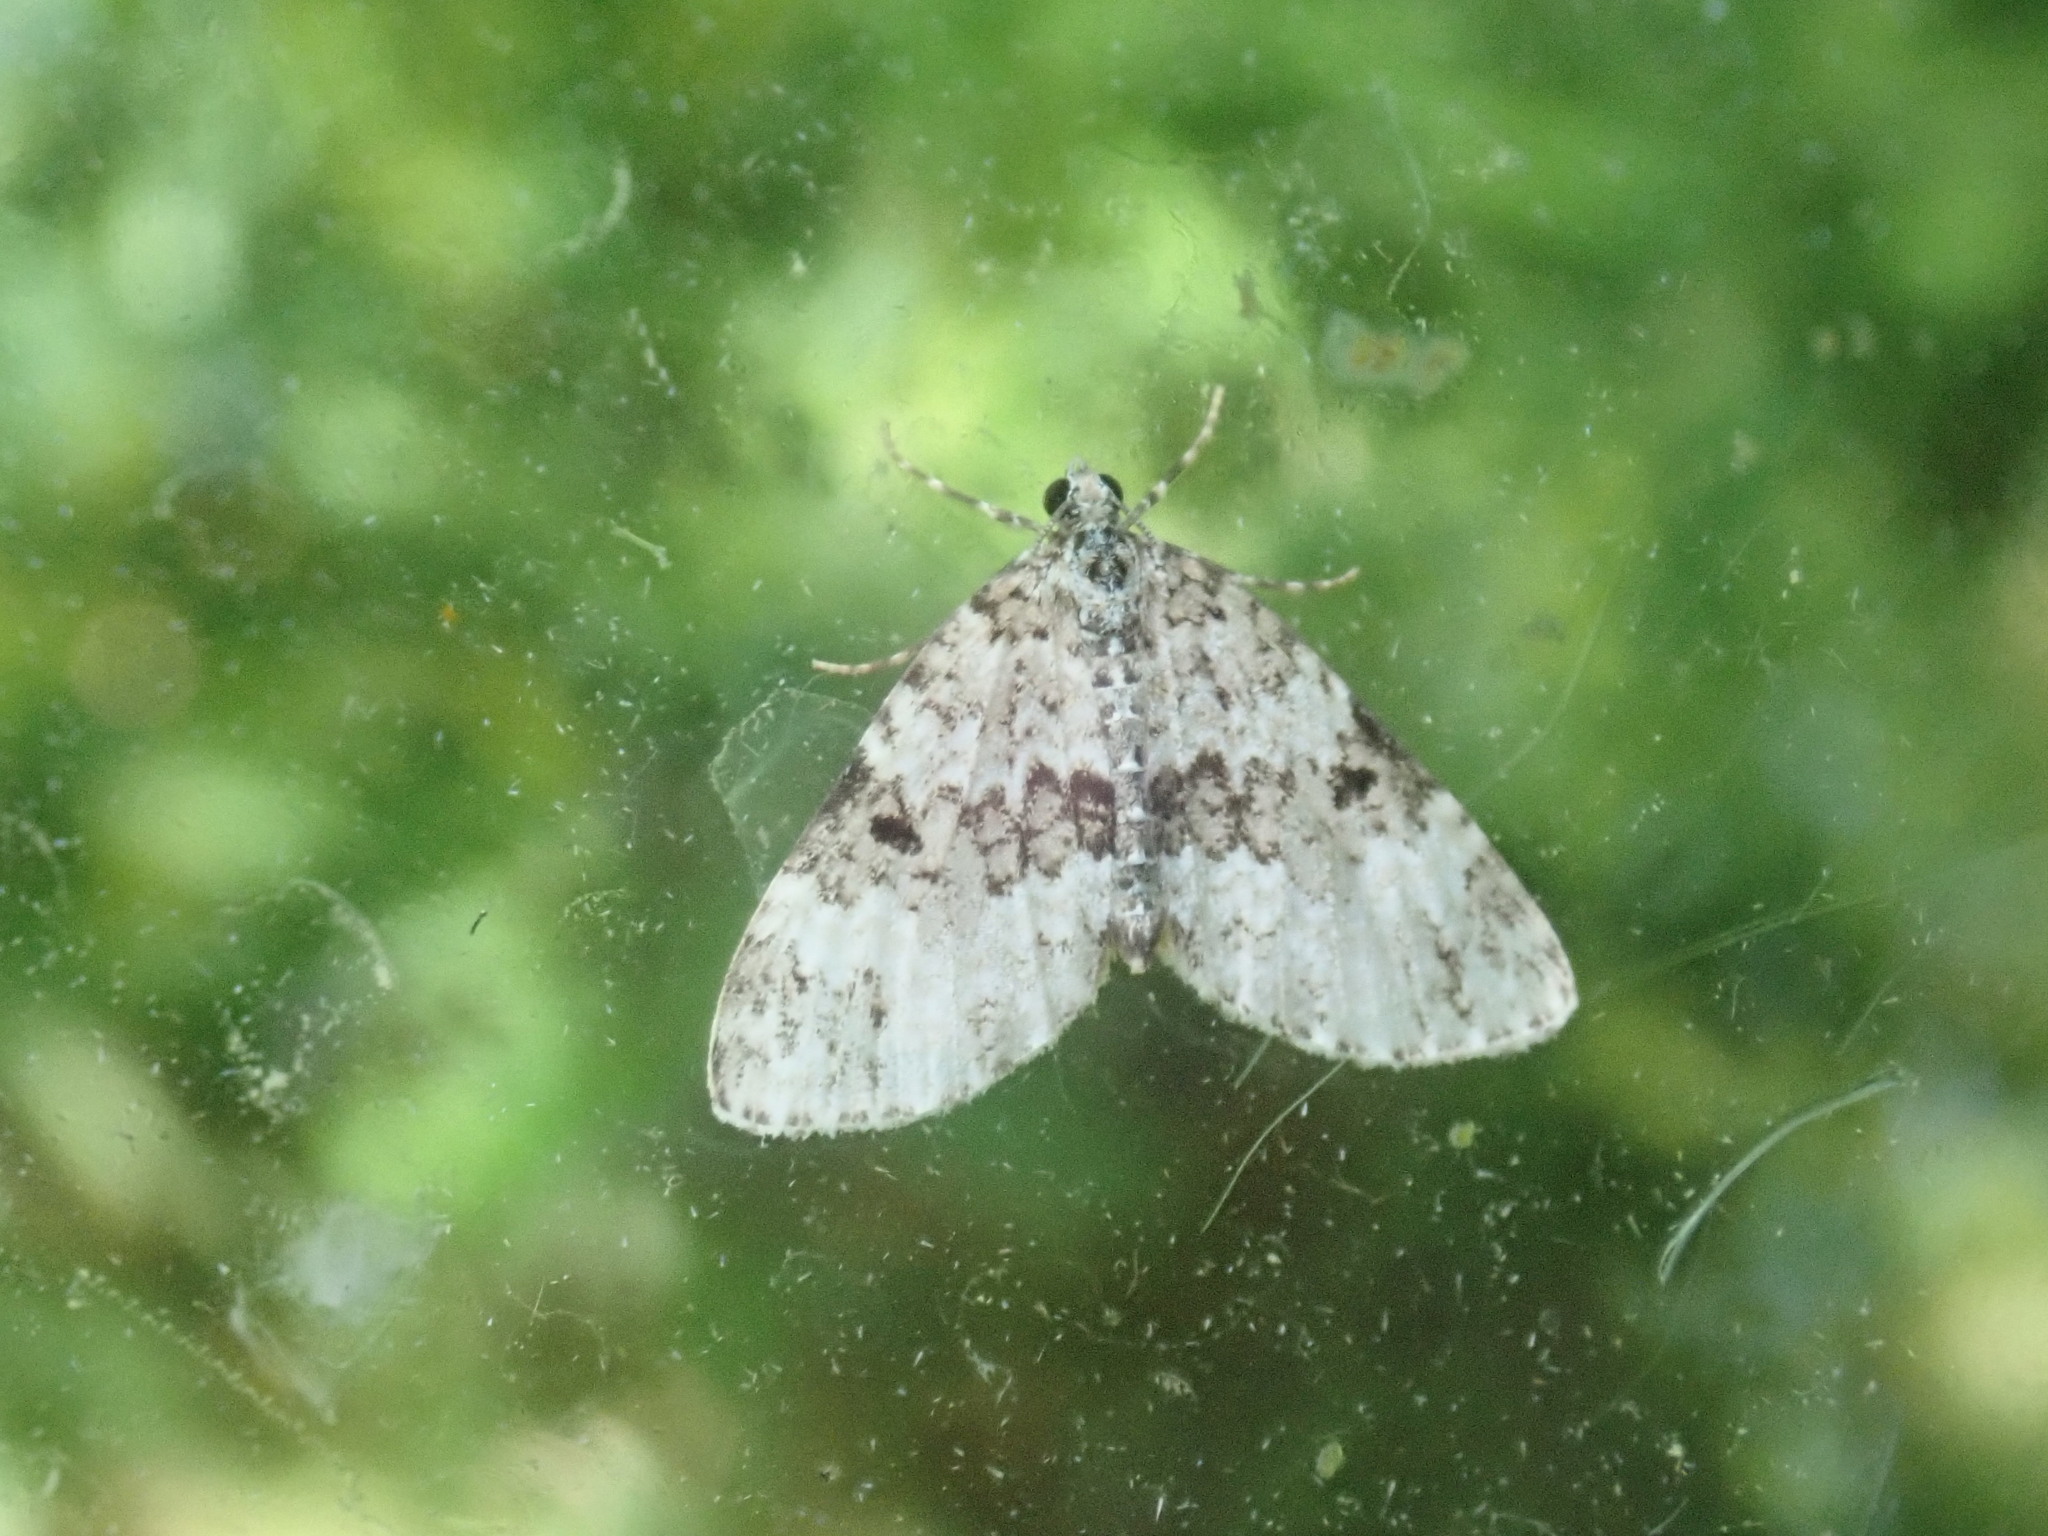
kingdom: Animalia
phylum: Arthropoda
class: Insecta
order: Lepidoptera
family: Geometridae
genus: Spargania
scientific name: Spargania magnoliata
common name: Double-banded carpet
